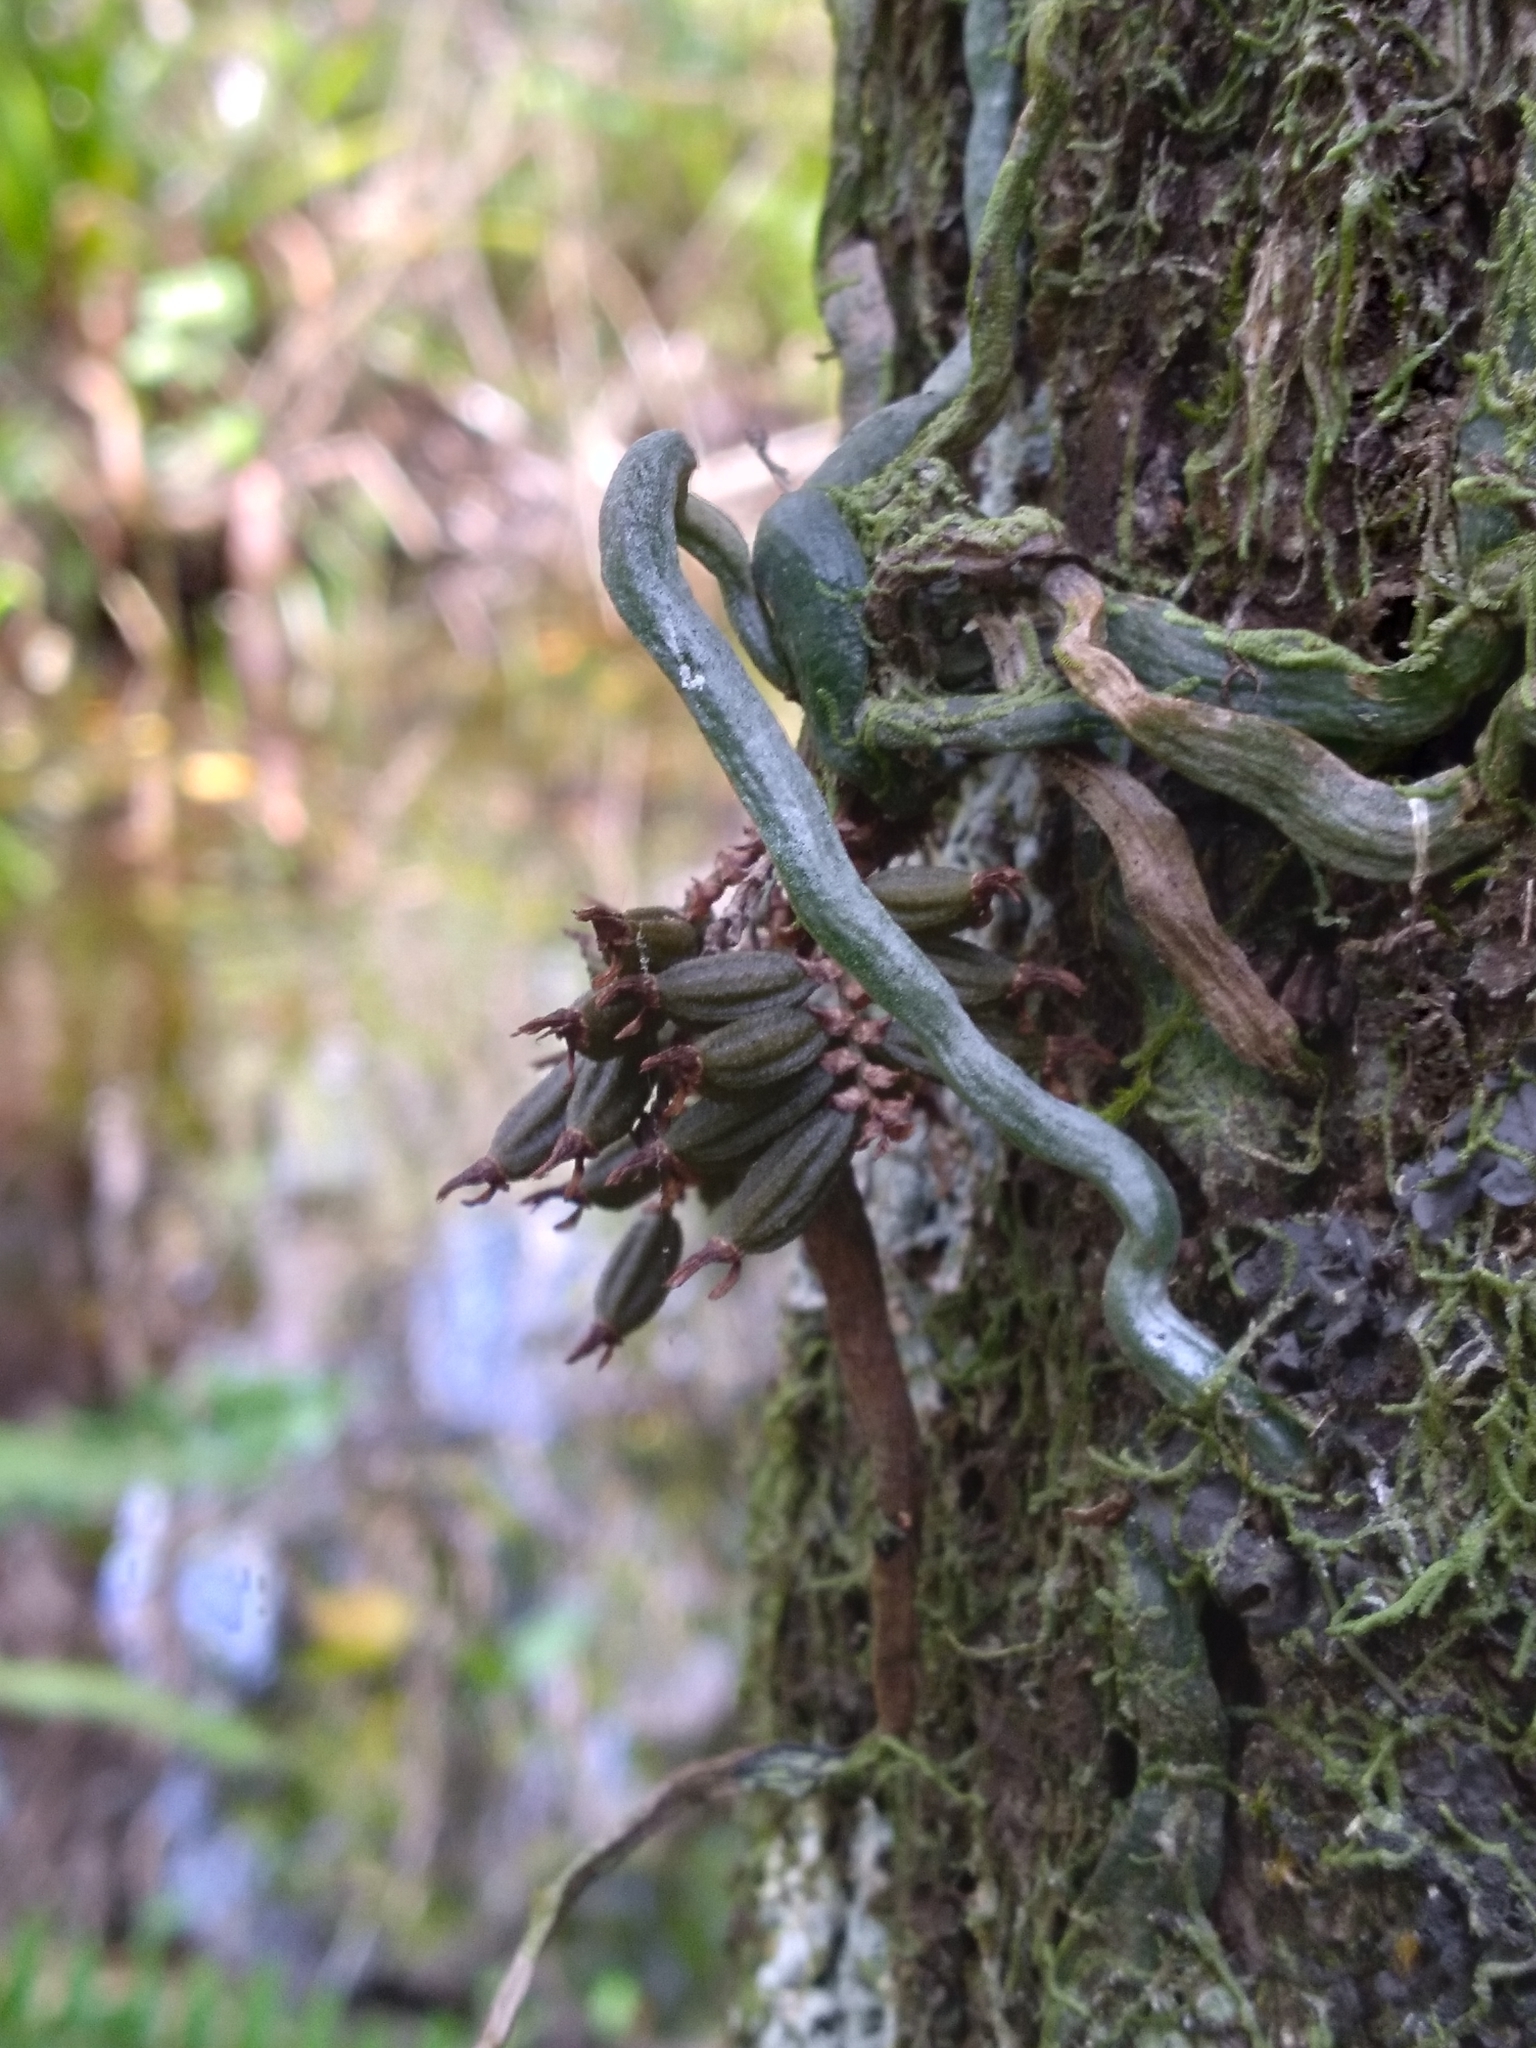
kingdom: Plantae
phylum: Tracheophyta
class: Liliopsida
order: Asparagales
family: Orchidaceae
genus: Campylocentrum
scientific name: Campylocentrum pachyrrhizum
